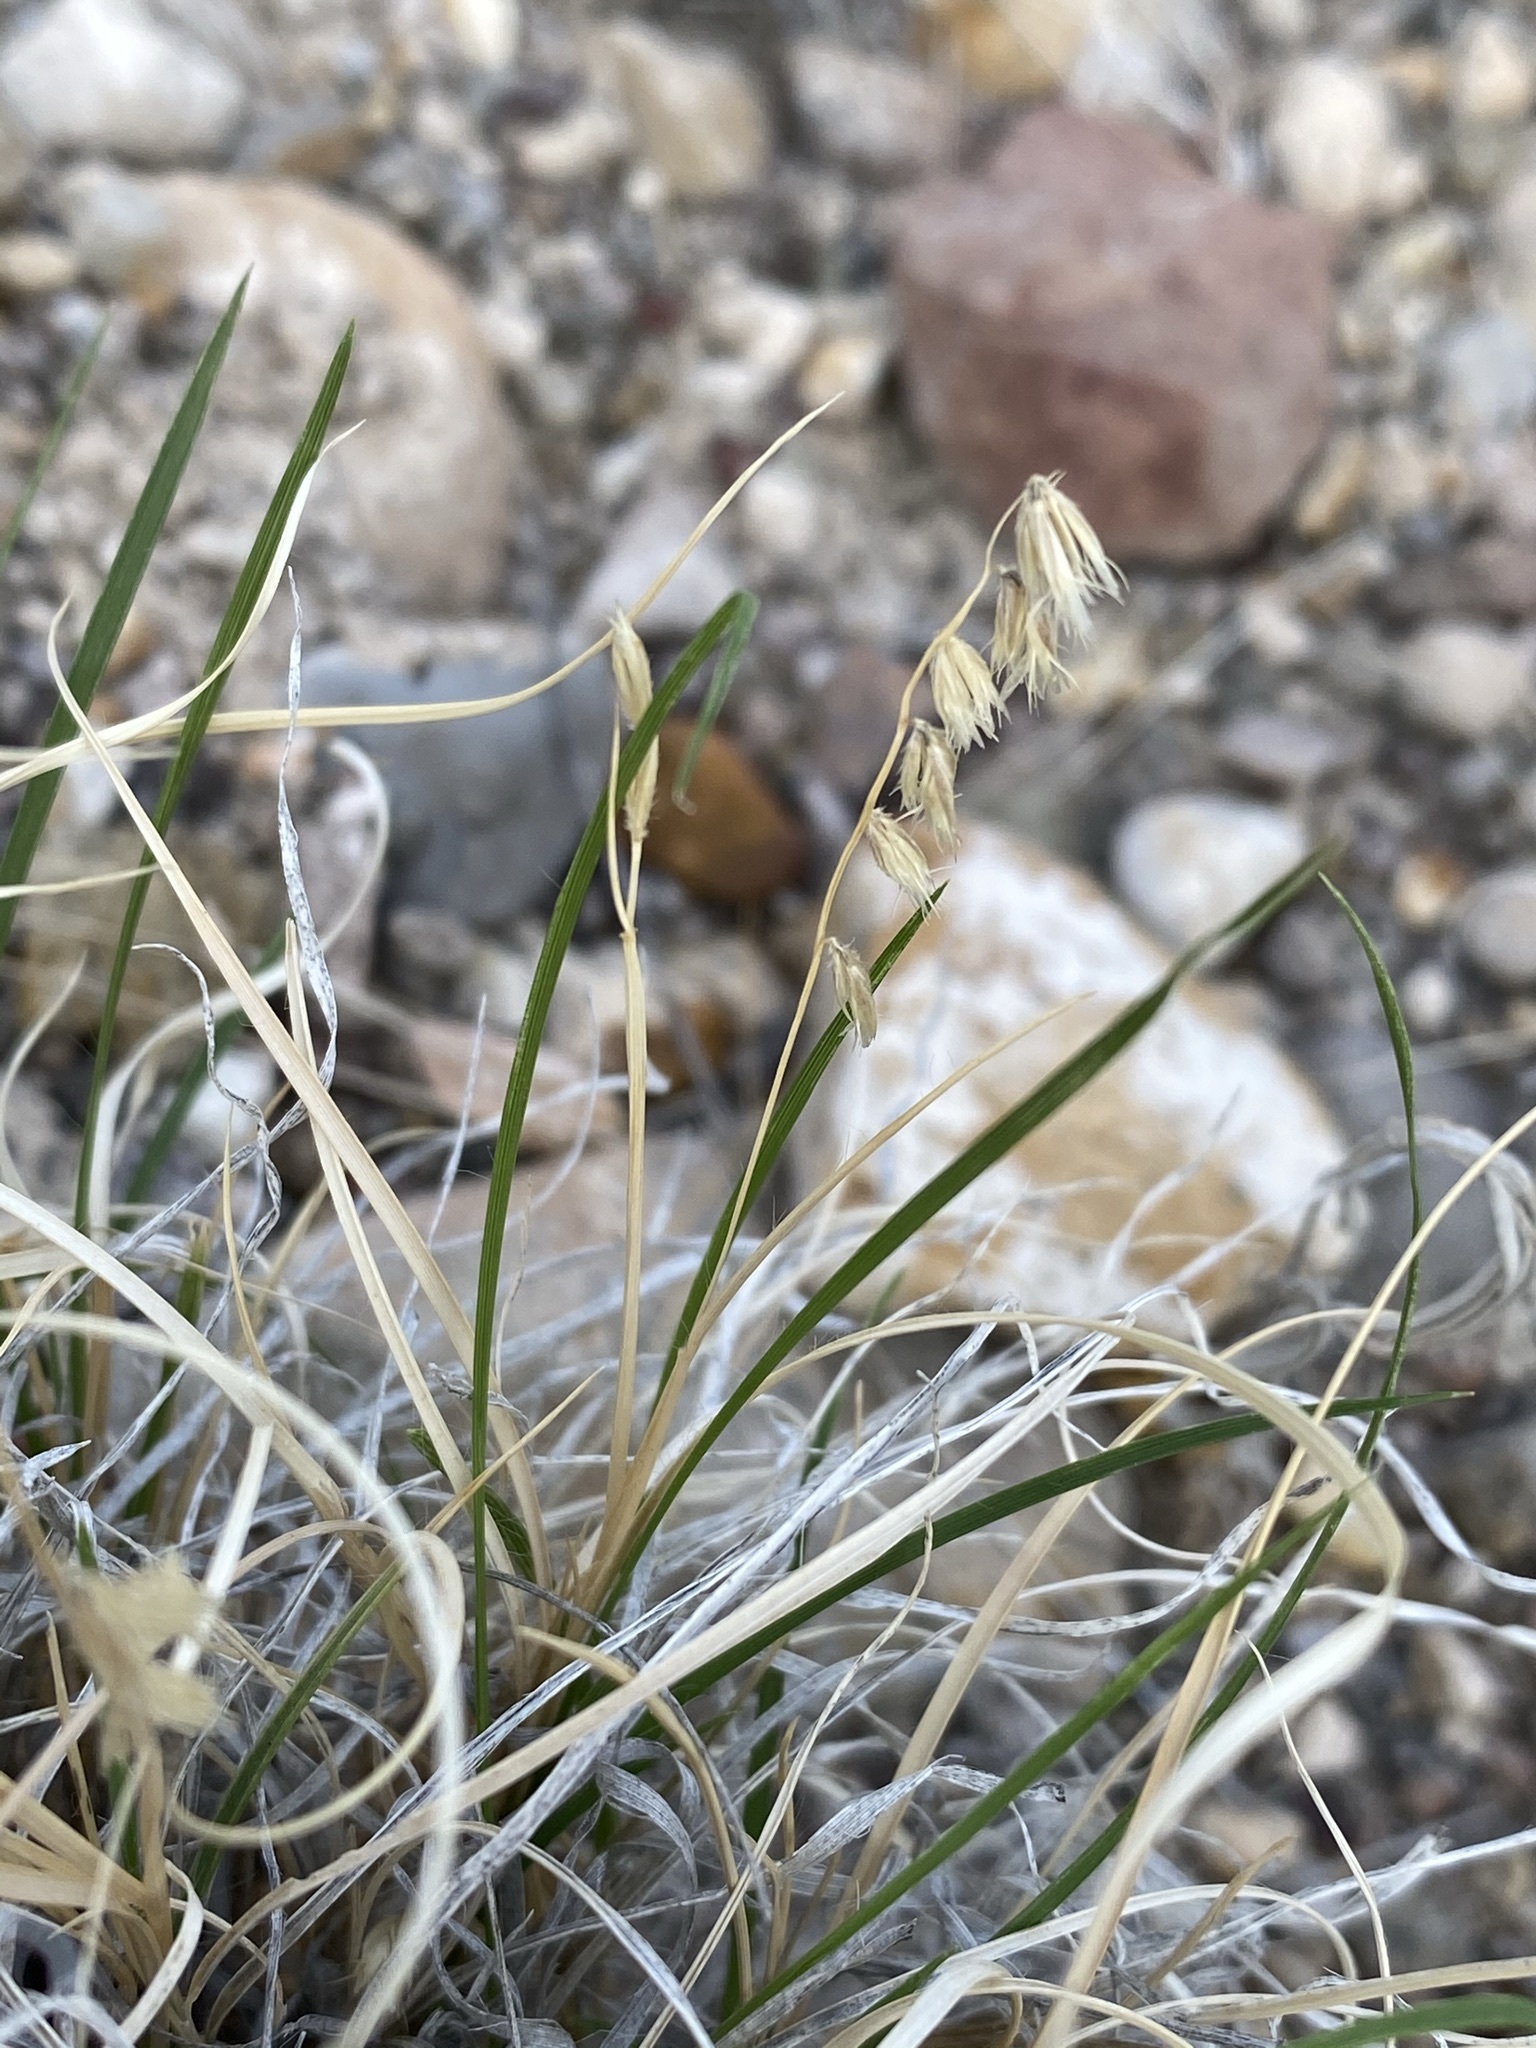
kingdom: Plantae
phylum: Tracheophyta
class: Liliopsida
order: Poales
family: Poaceae
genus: Bouteloua
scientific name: Bouteloua erecta
